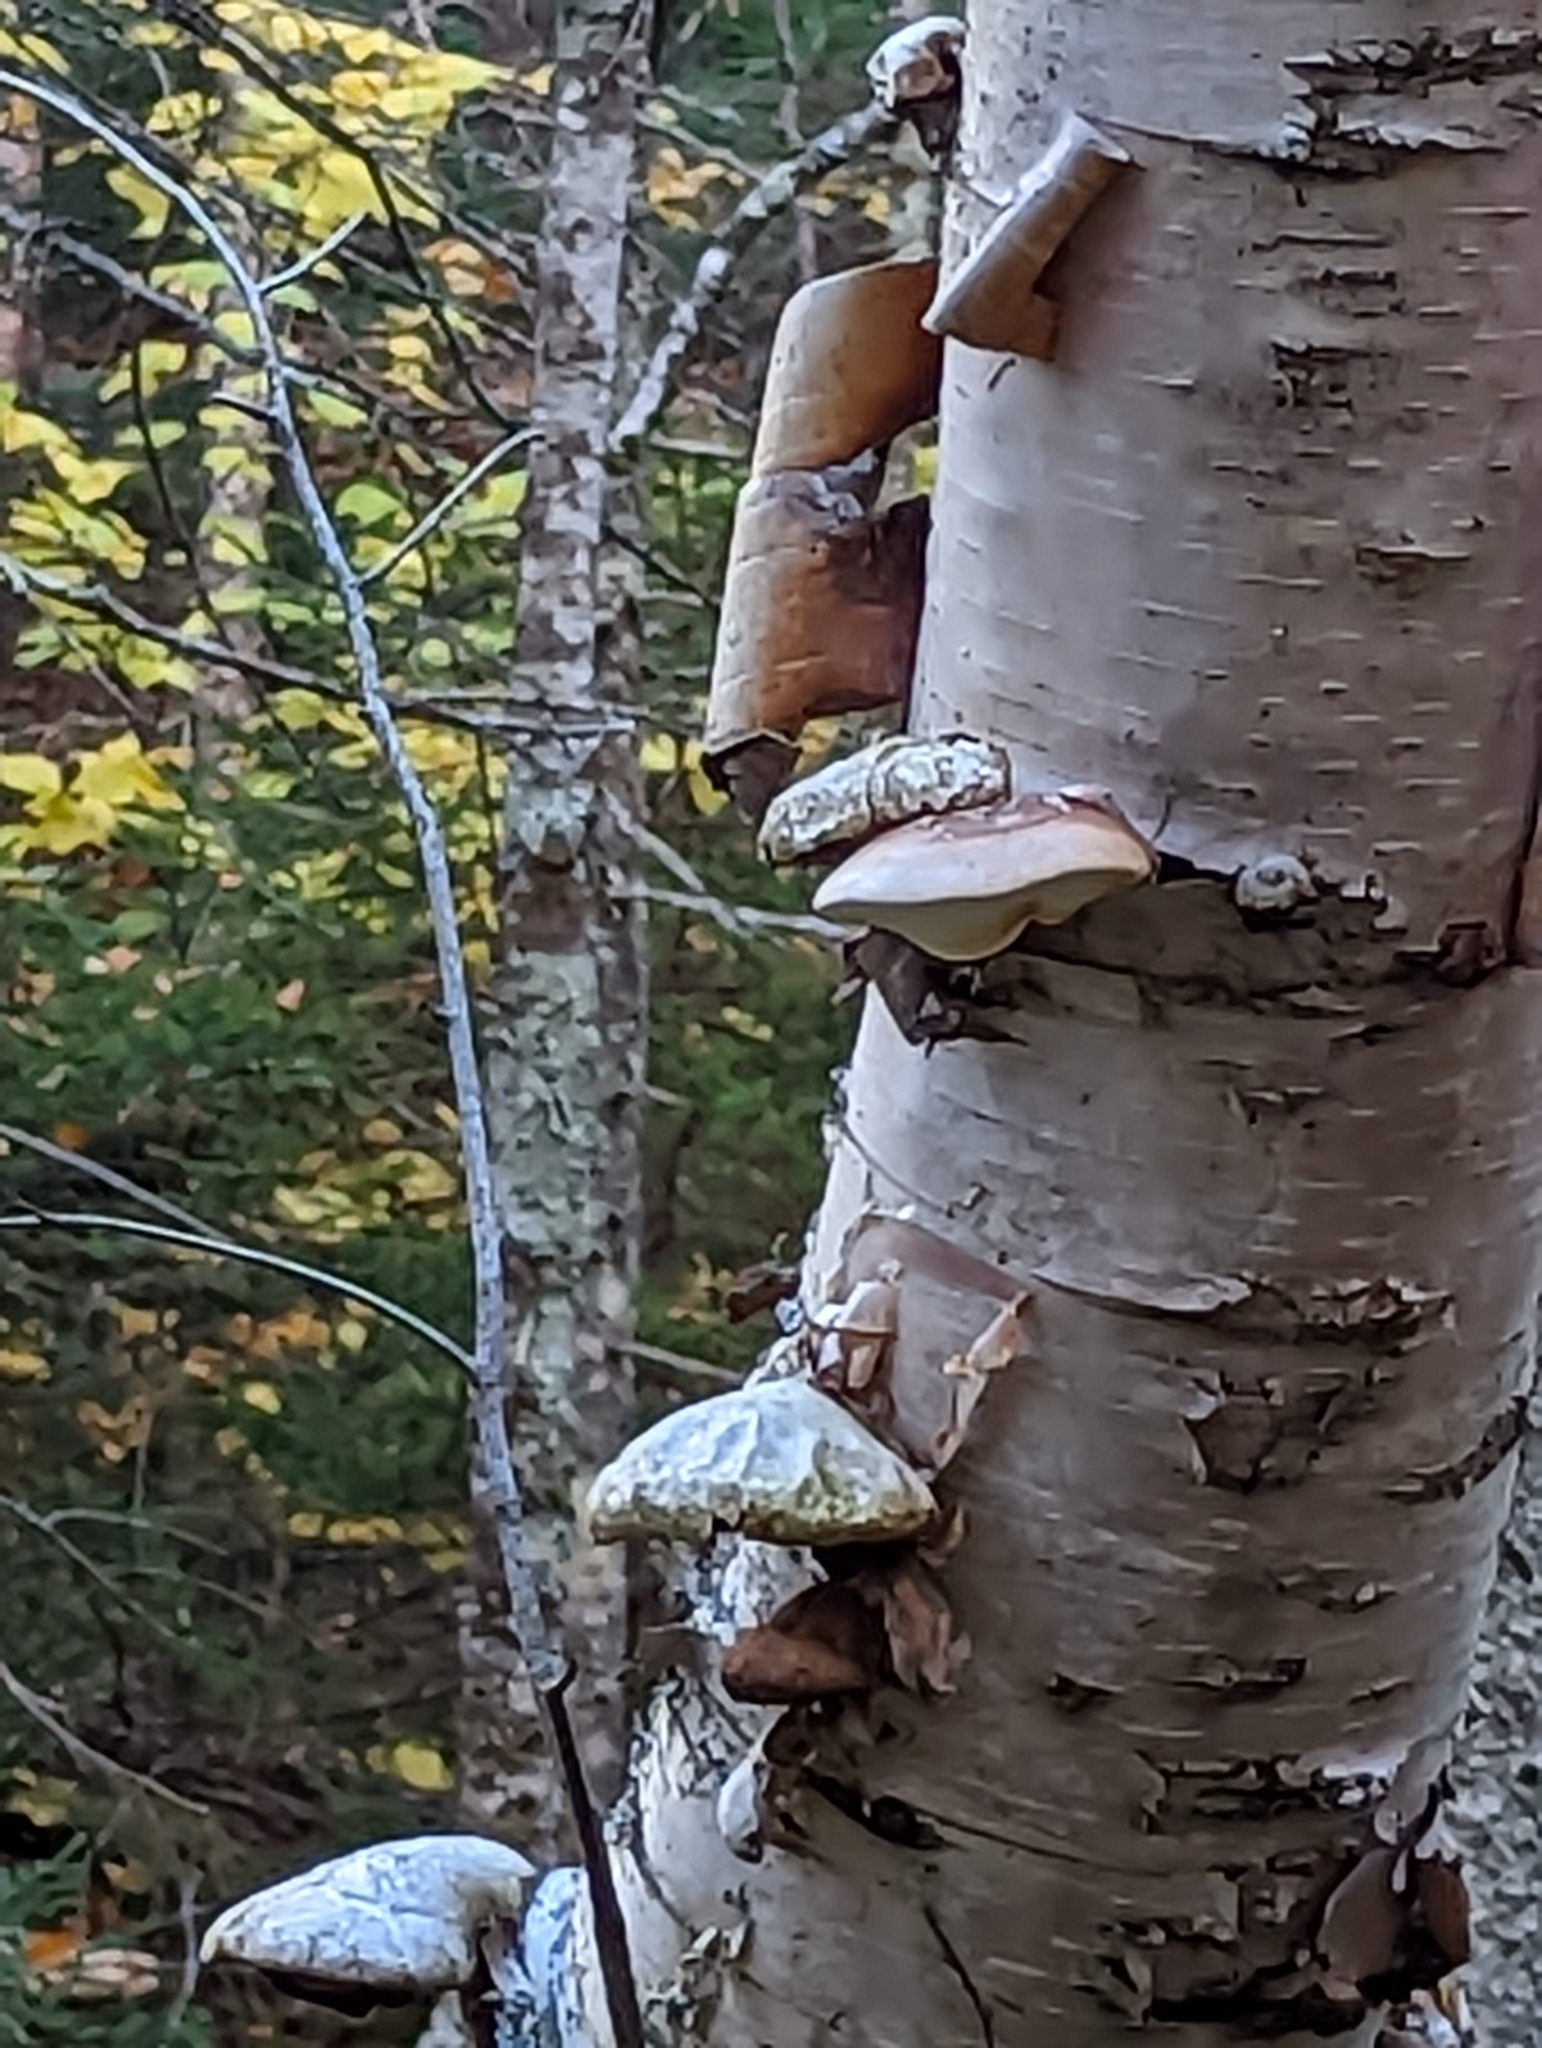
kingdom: Fungi
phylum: Basidiomycota
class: Agaricomycetes
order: Polyporales
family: Fomitopsidaceae
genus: Fomitopsis
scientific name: Fomitopsis betulina
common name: Birch polypore
